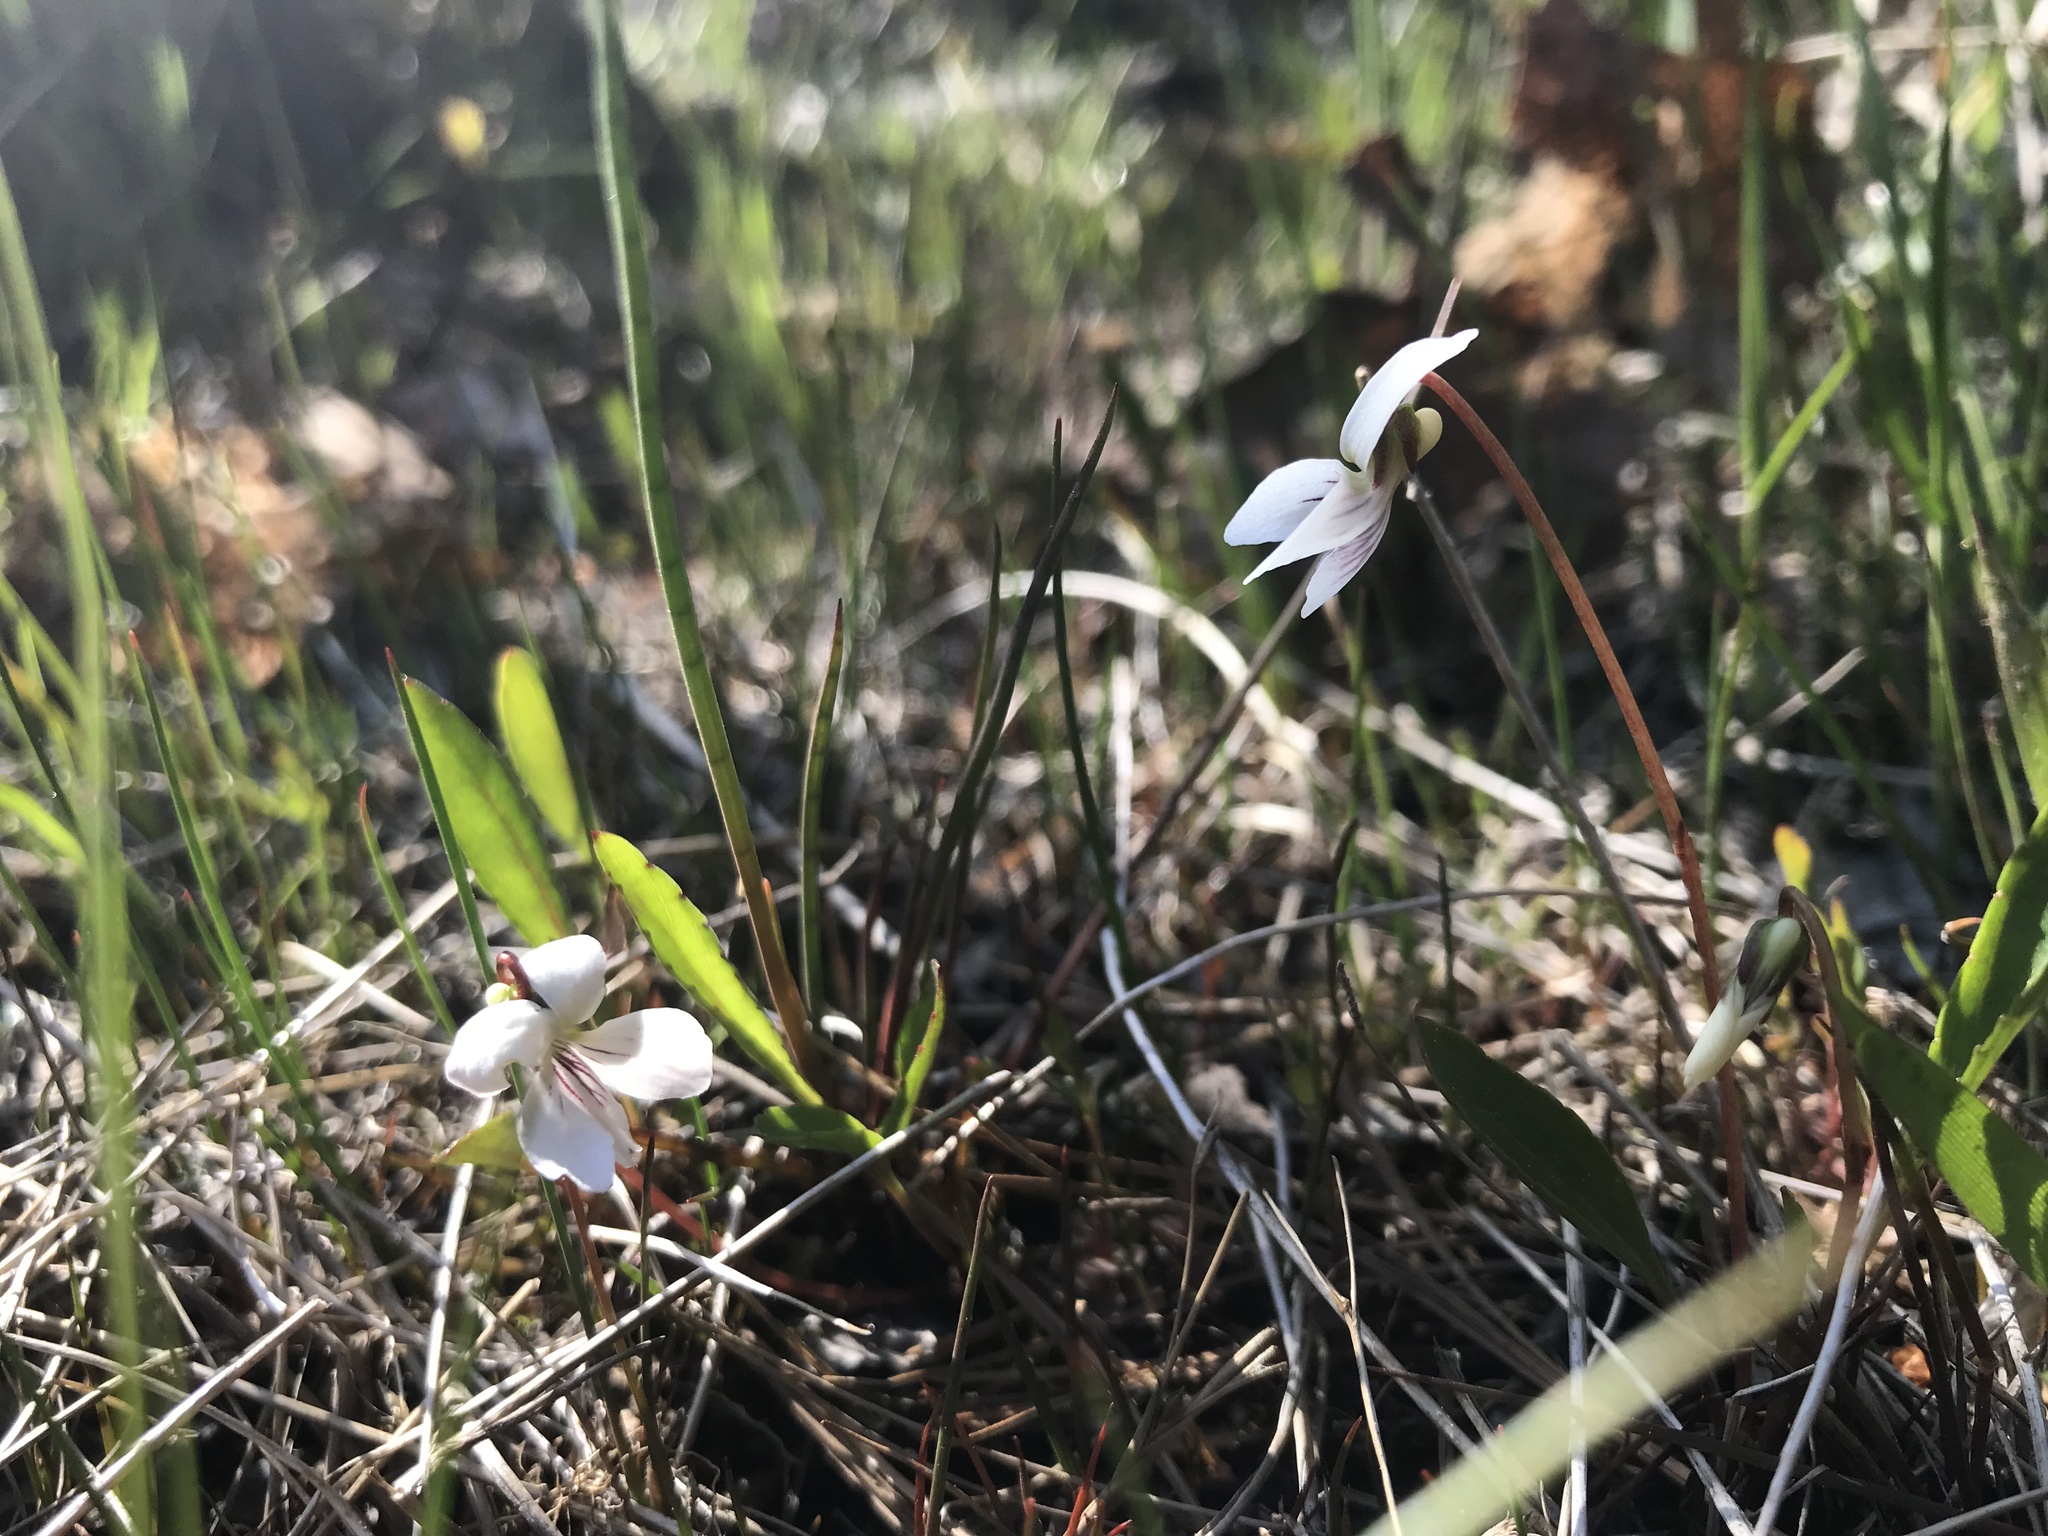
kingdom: Plantae
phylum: Tracheophyta
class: Magnoliopsida
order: Malpighiales
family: Violaceae
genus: Viola
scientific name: Viola lanceolata
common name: Bog white violet
